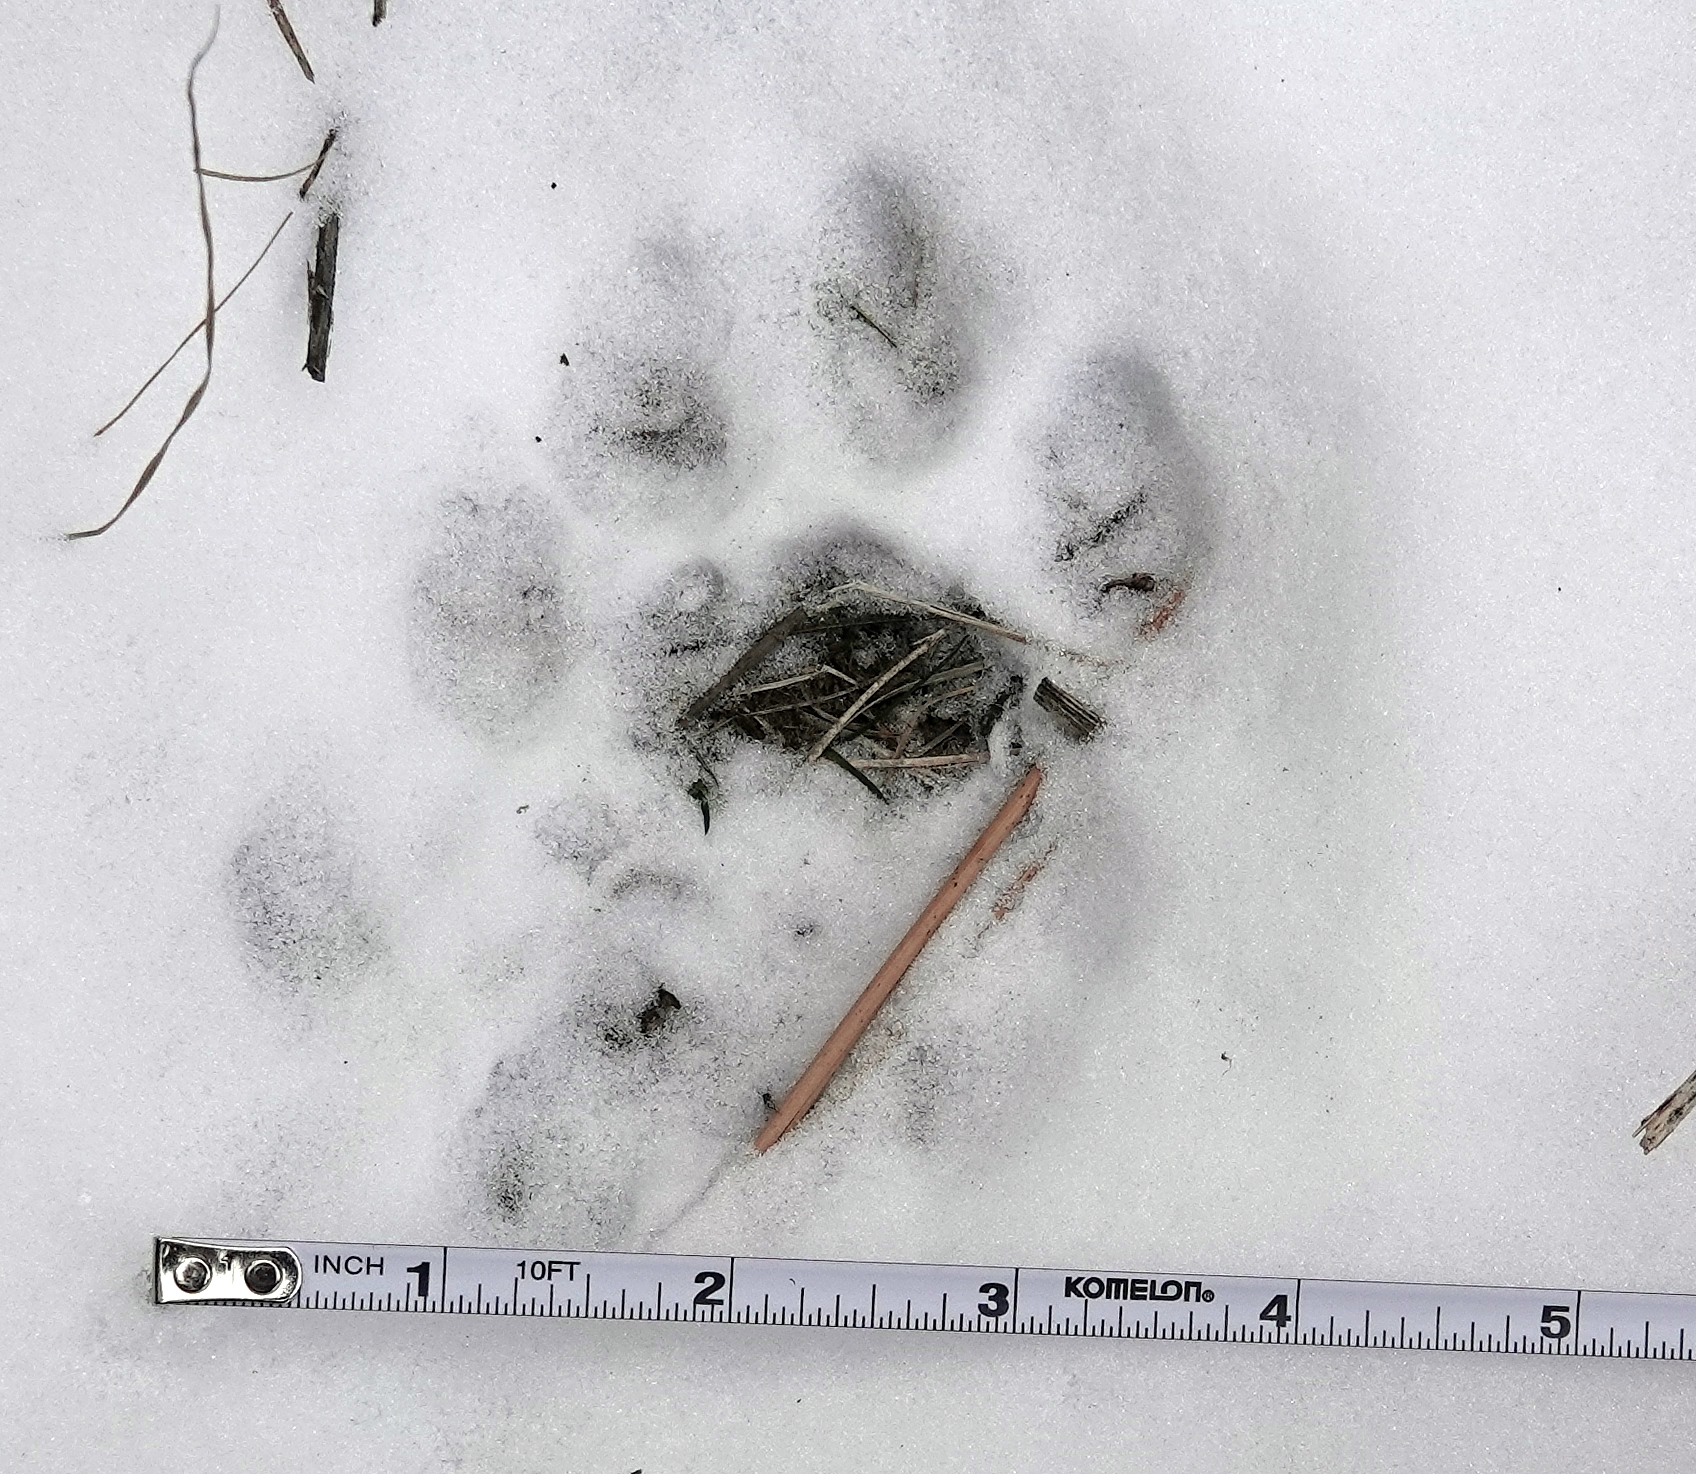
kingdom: Animalia
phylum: Chordata
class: Mammalia
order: Carnivora
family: Felidae
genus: Puma
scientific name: Puma concolor
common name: Puma
